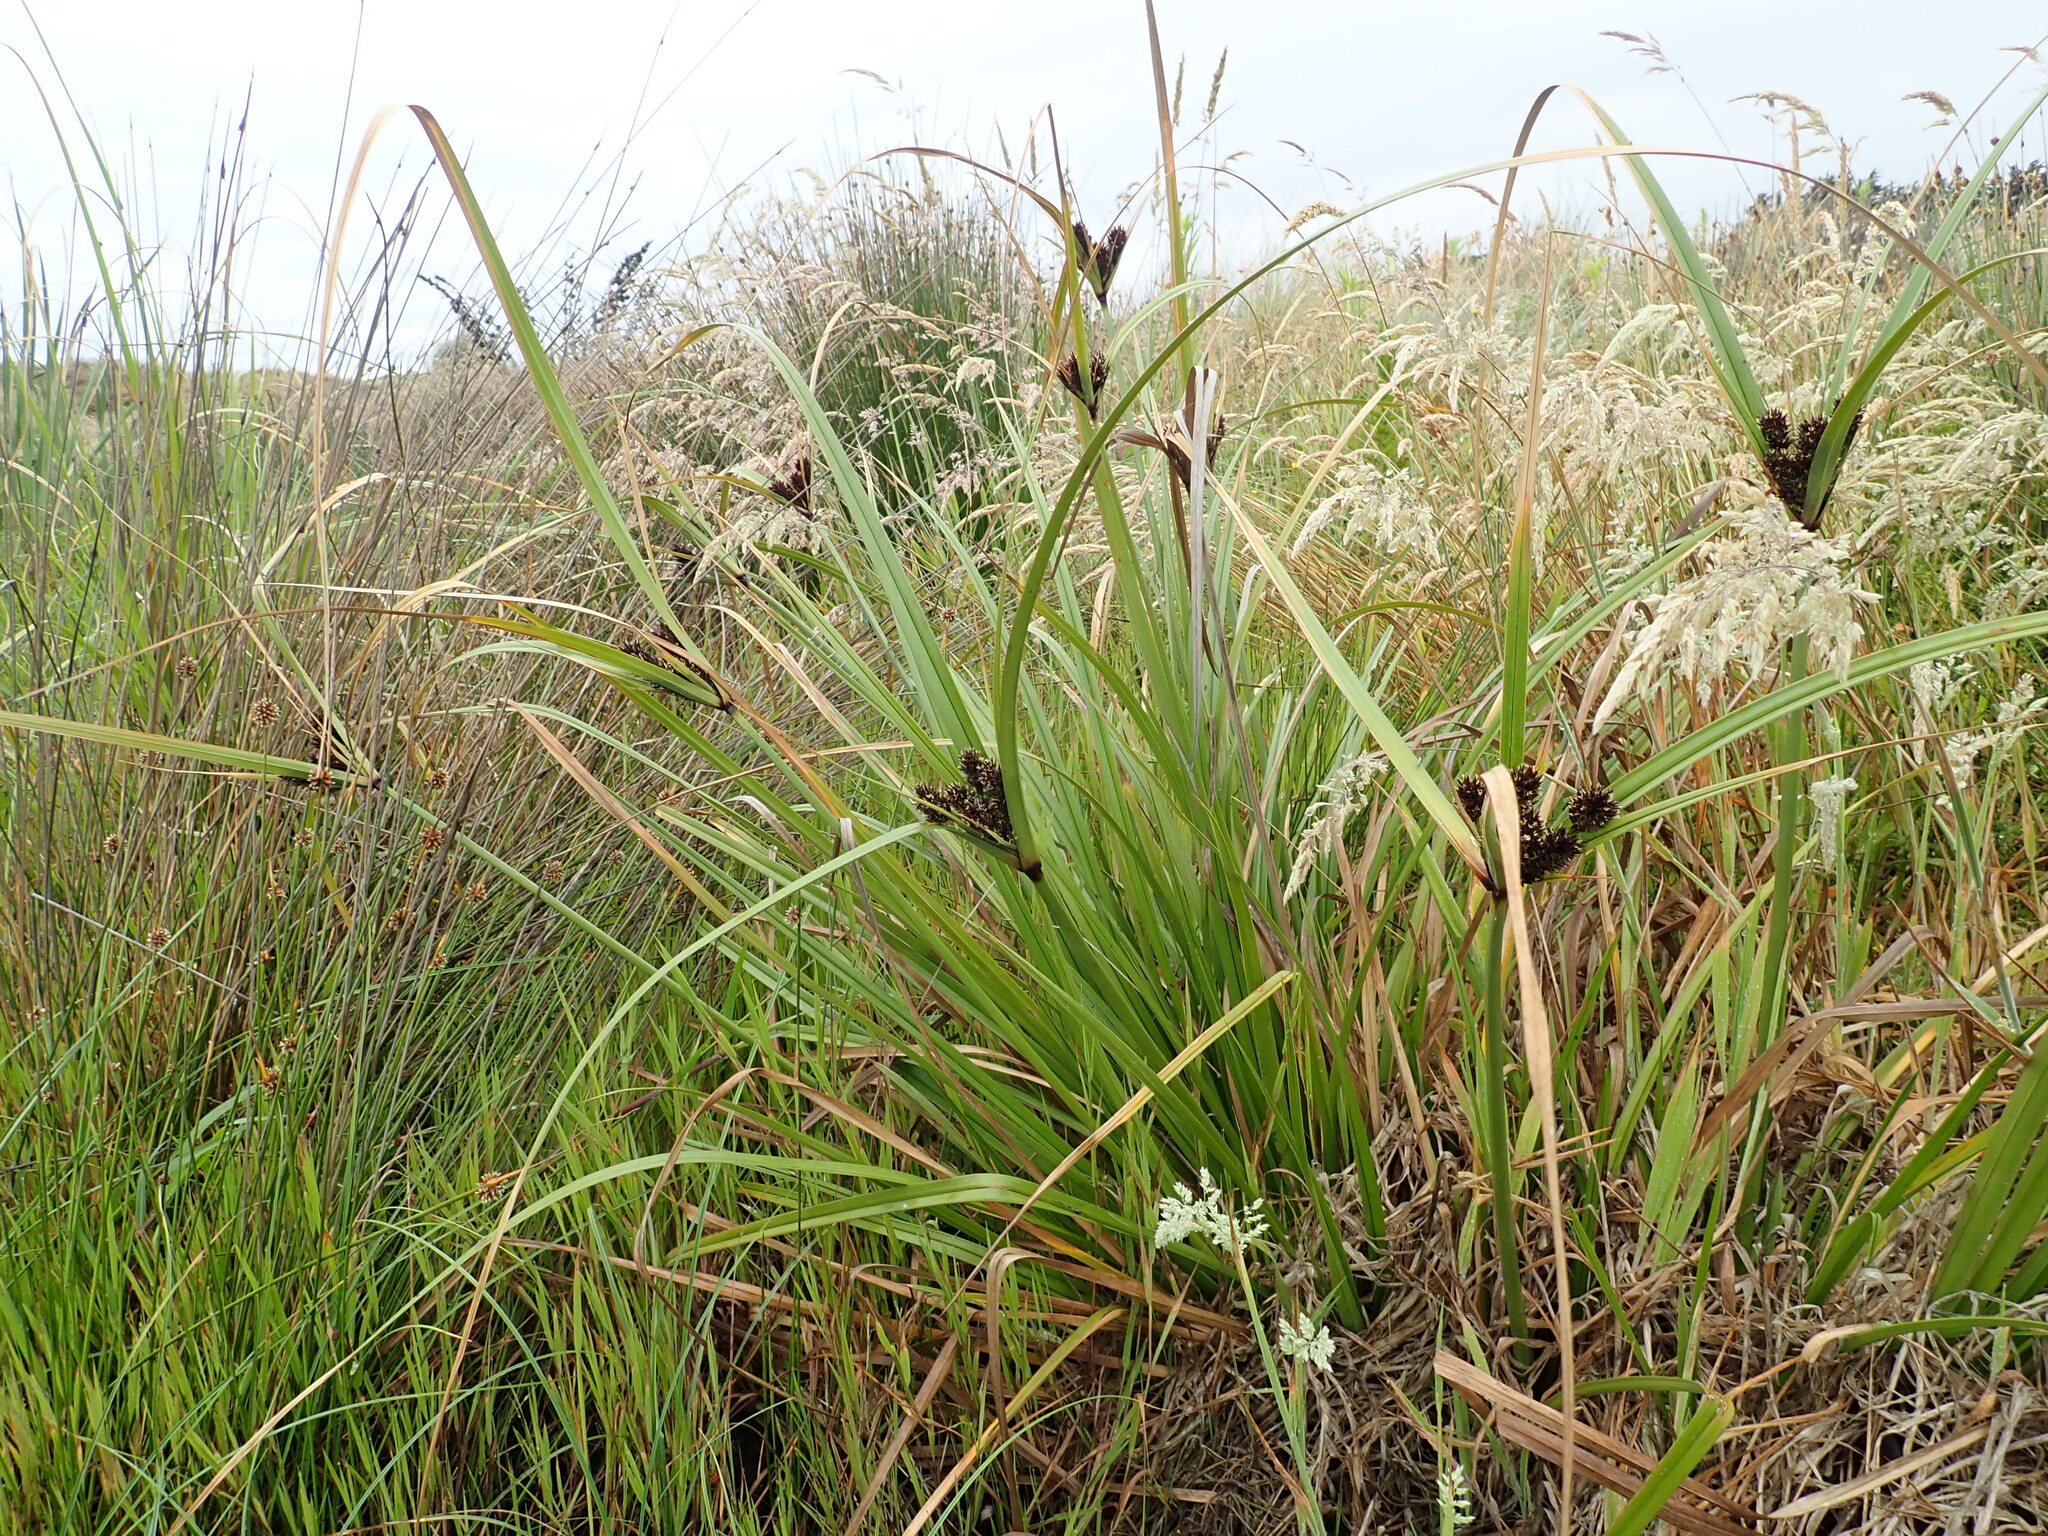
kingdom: Plantae
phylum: Tracheophyta
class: Liliopsida
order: Poales
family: Cyperaceae
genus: Cyperus
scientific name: Cyperus ustulatus
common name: Giant umbrella-sedge
